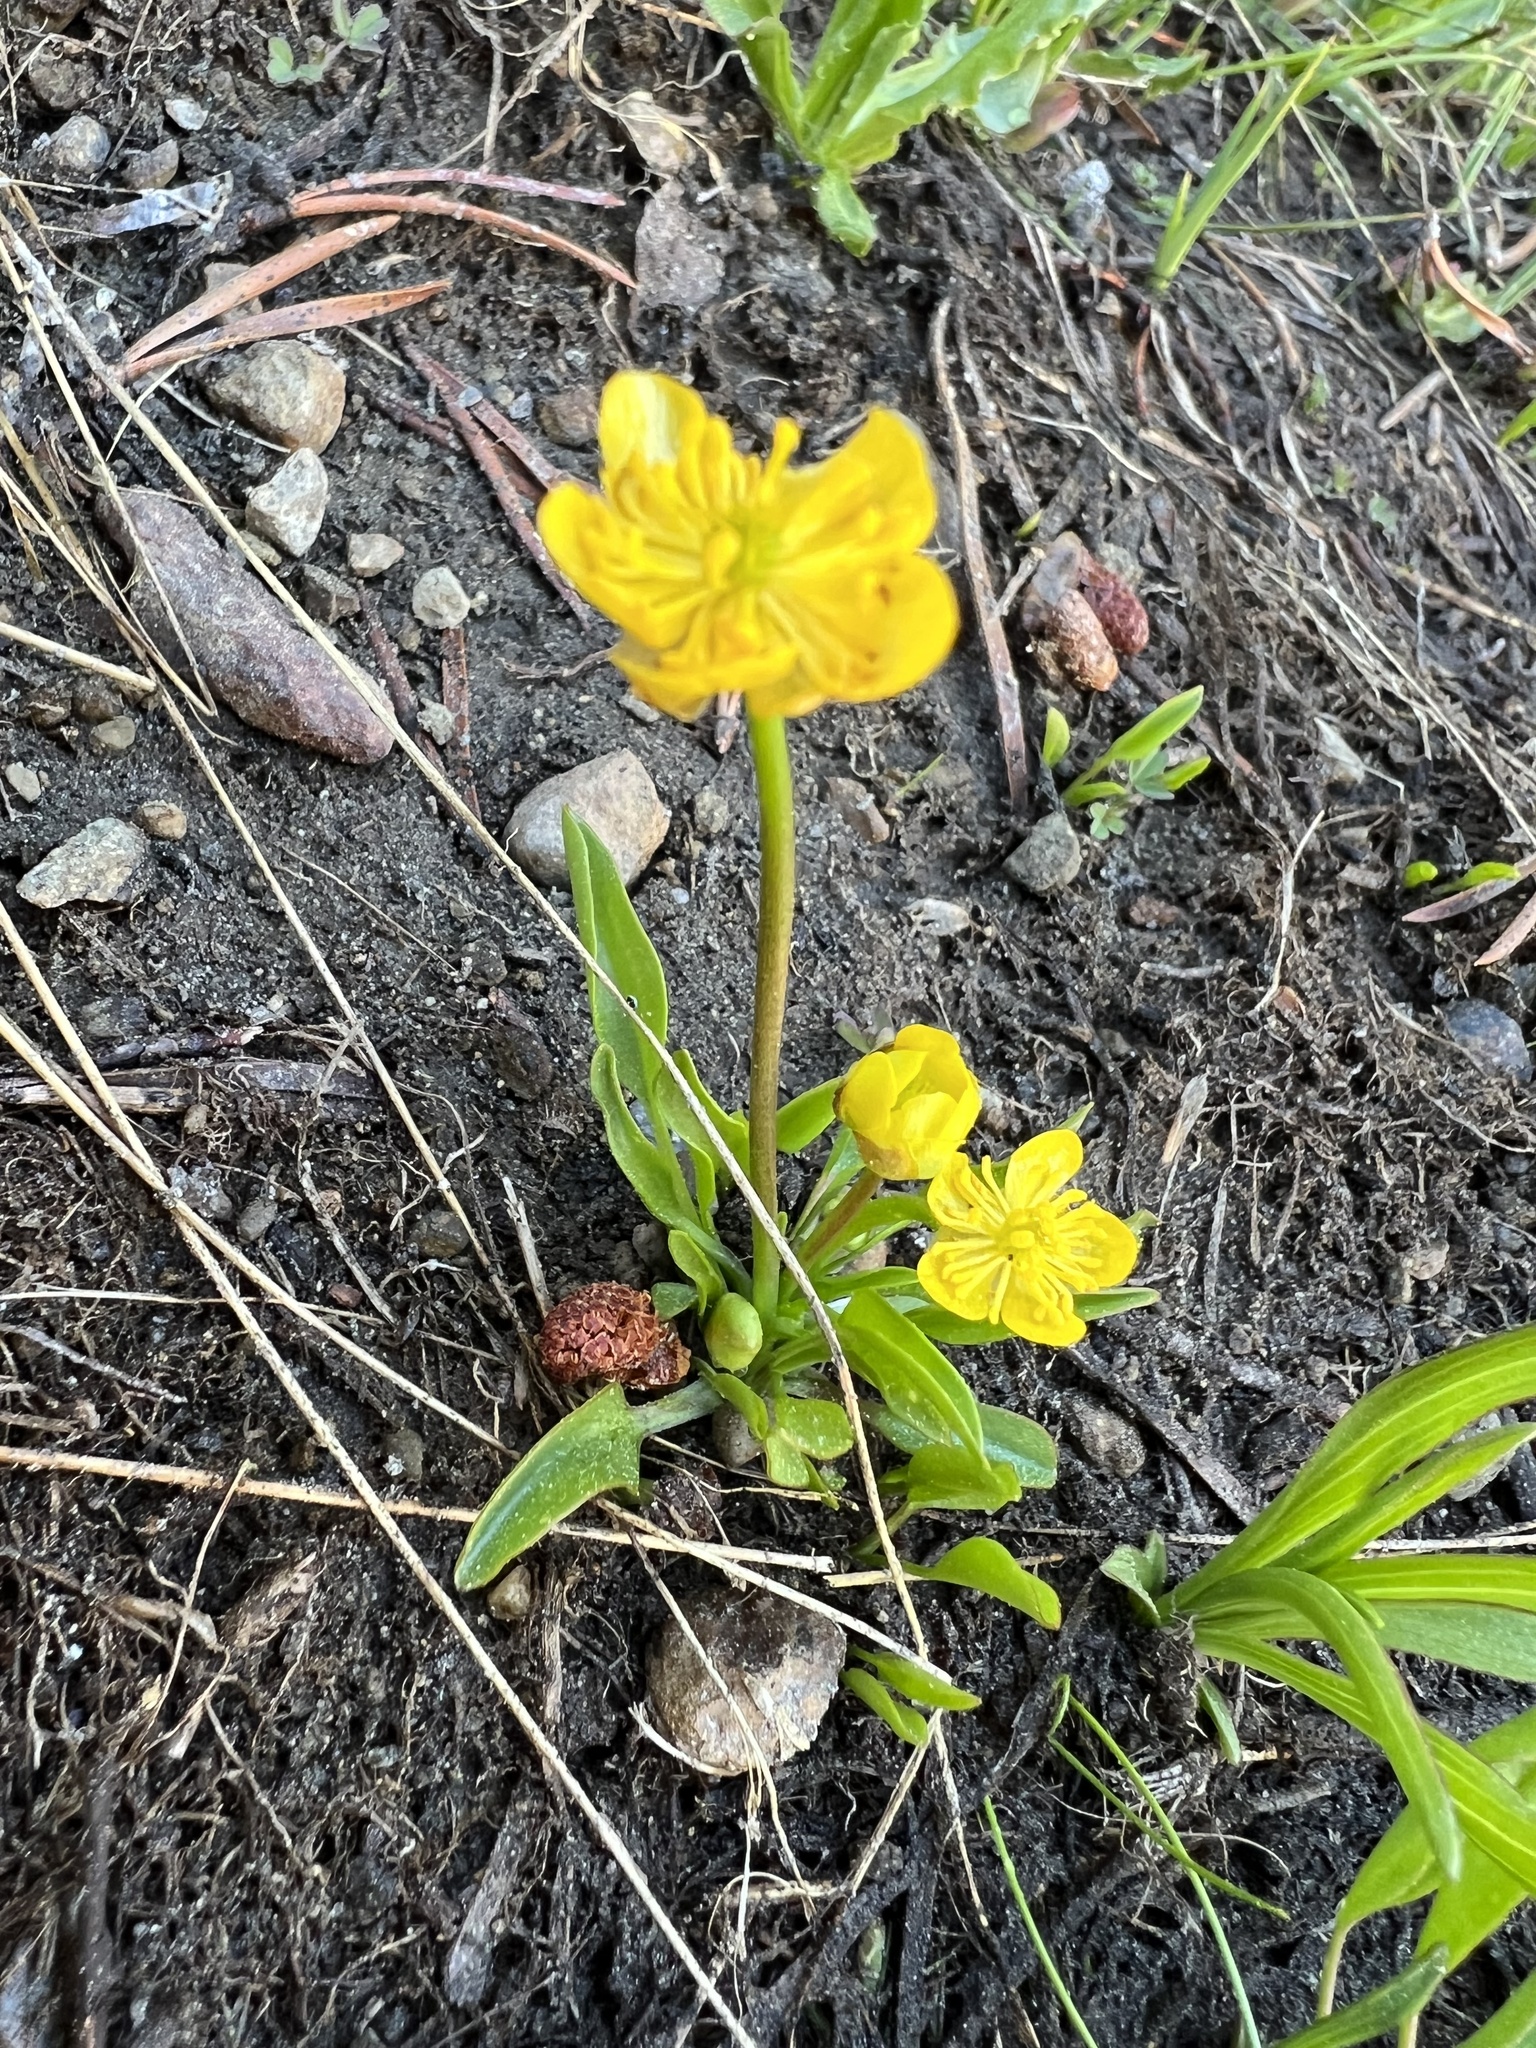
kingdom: Plantae
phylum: Tracheophyta
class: Magnoliopsida
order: Ranunculales
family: Ranunculaceae
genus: Ranunculus
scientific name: Ranunculus alismifolius
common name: Plantain-leaved buttercup
